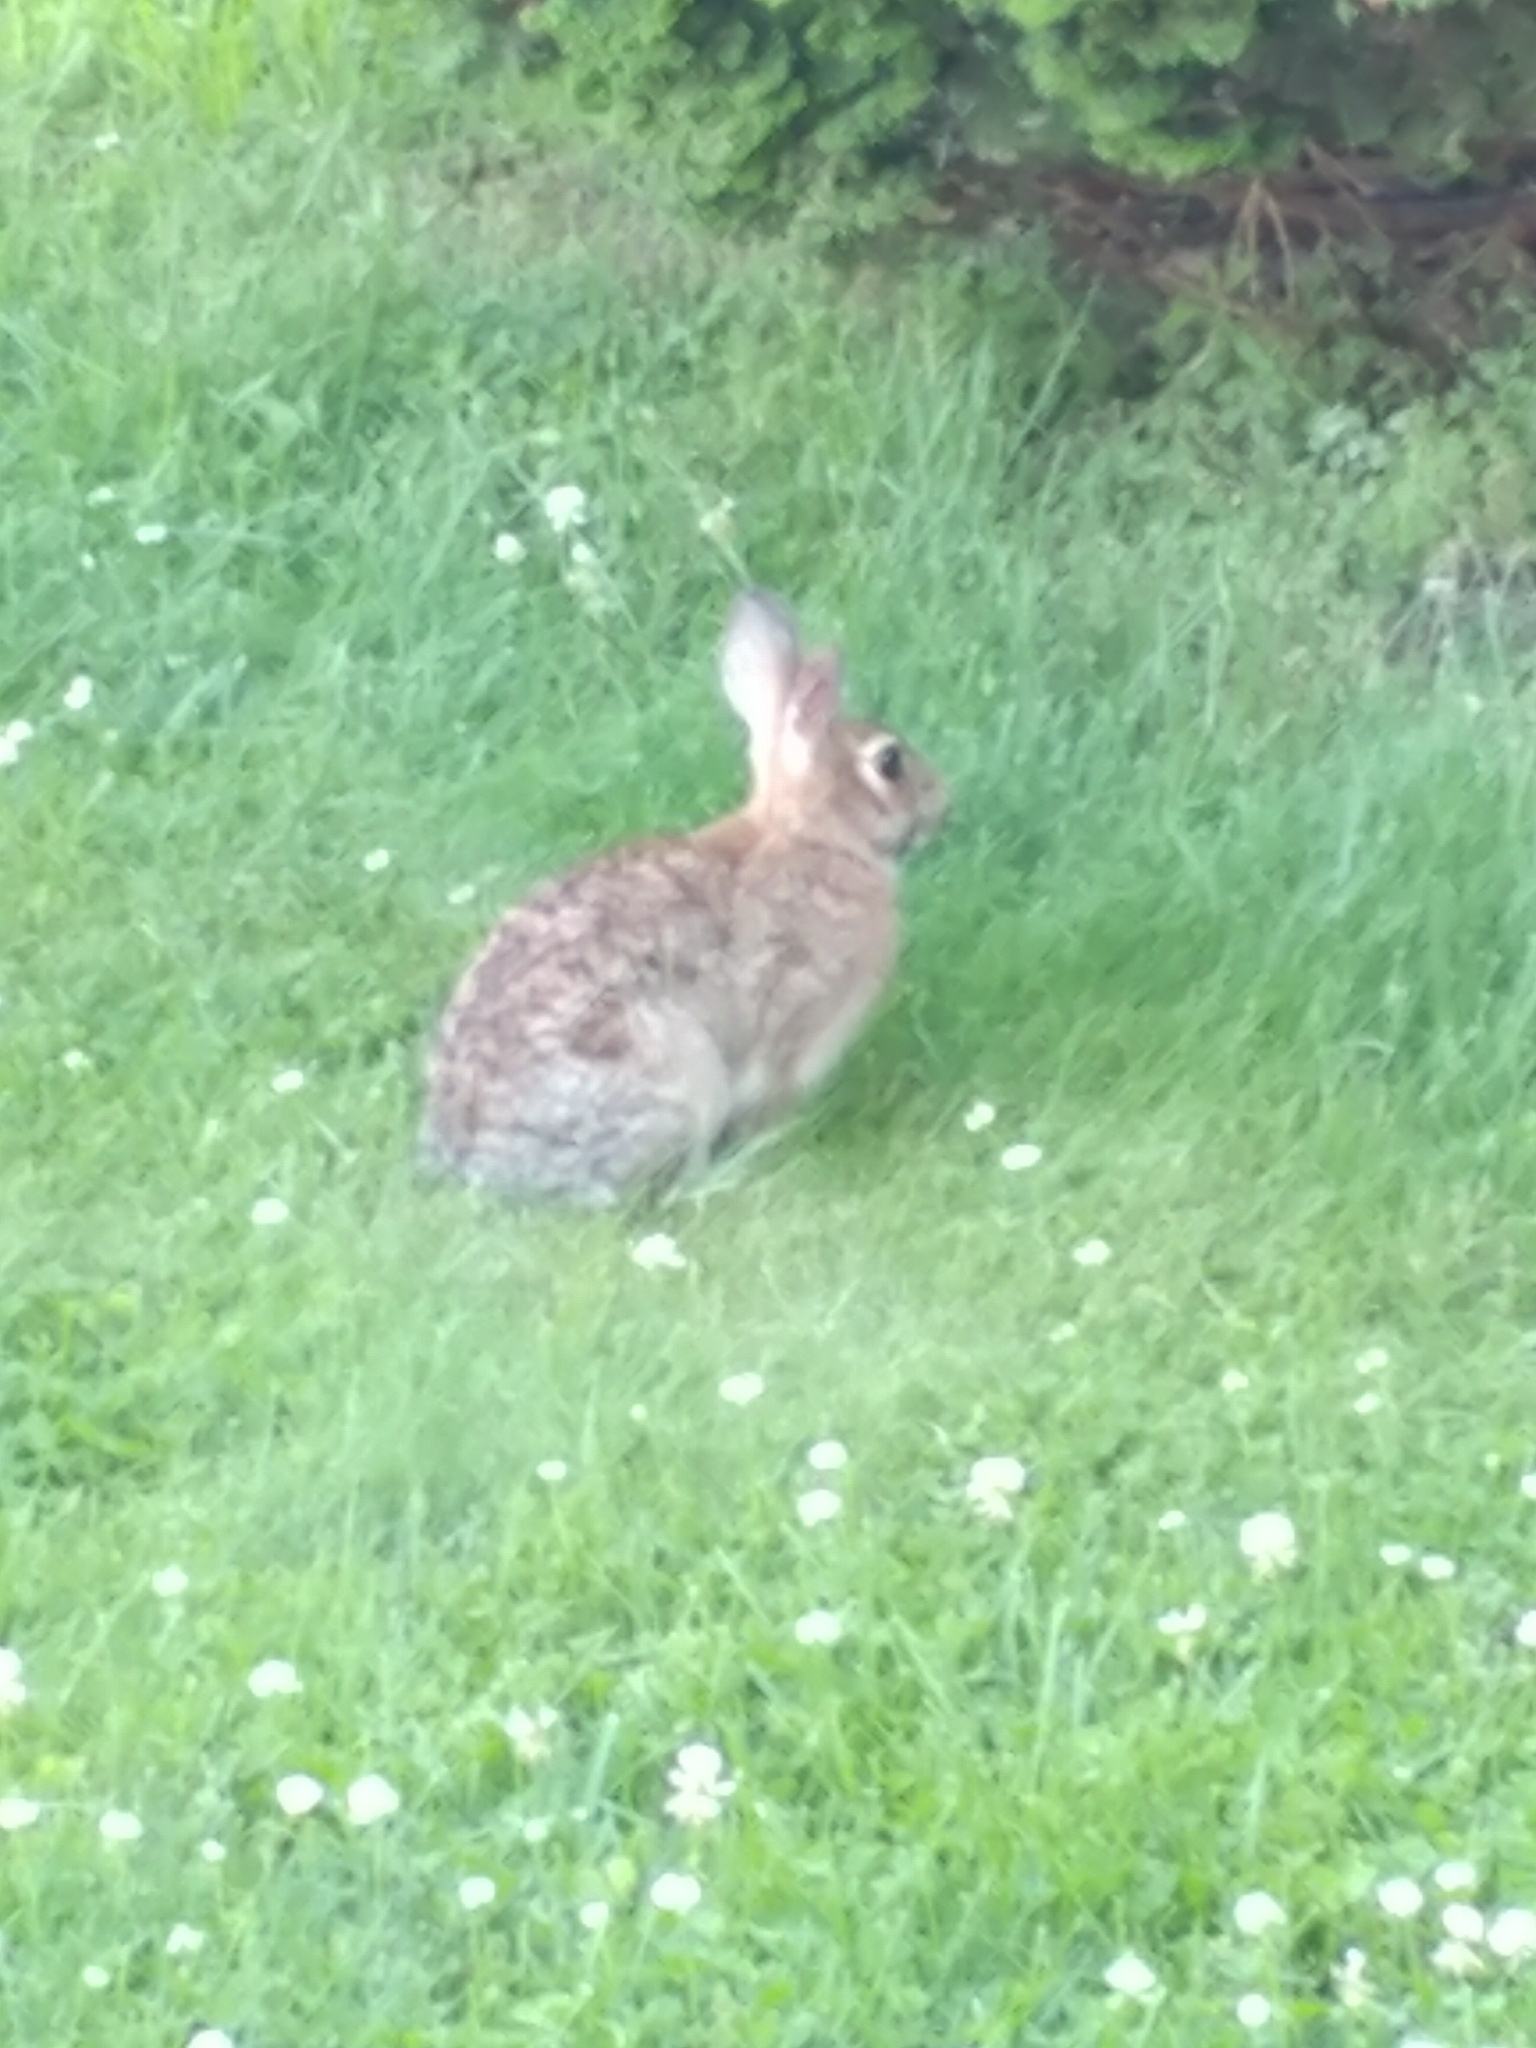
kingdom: Animalia
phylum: Chordata
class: Mammalia
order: Lagomorpha
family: Leporidae
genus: Sylvilagus
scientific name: Sylvilagus floridanus
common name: Eastern cottontail
